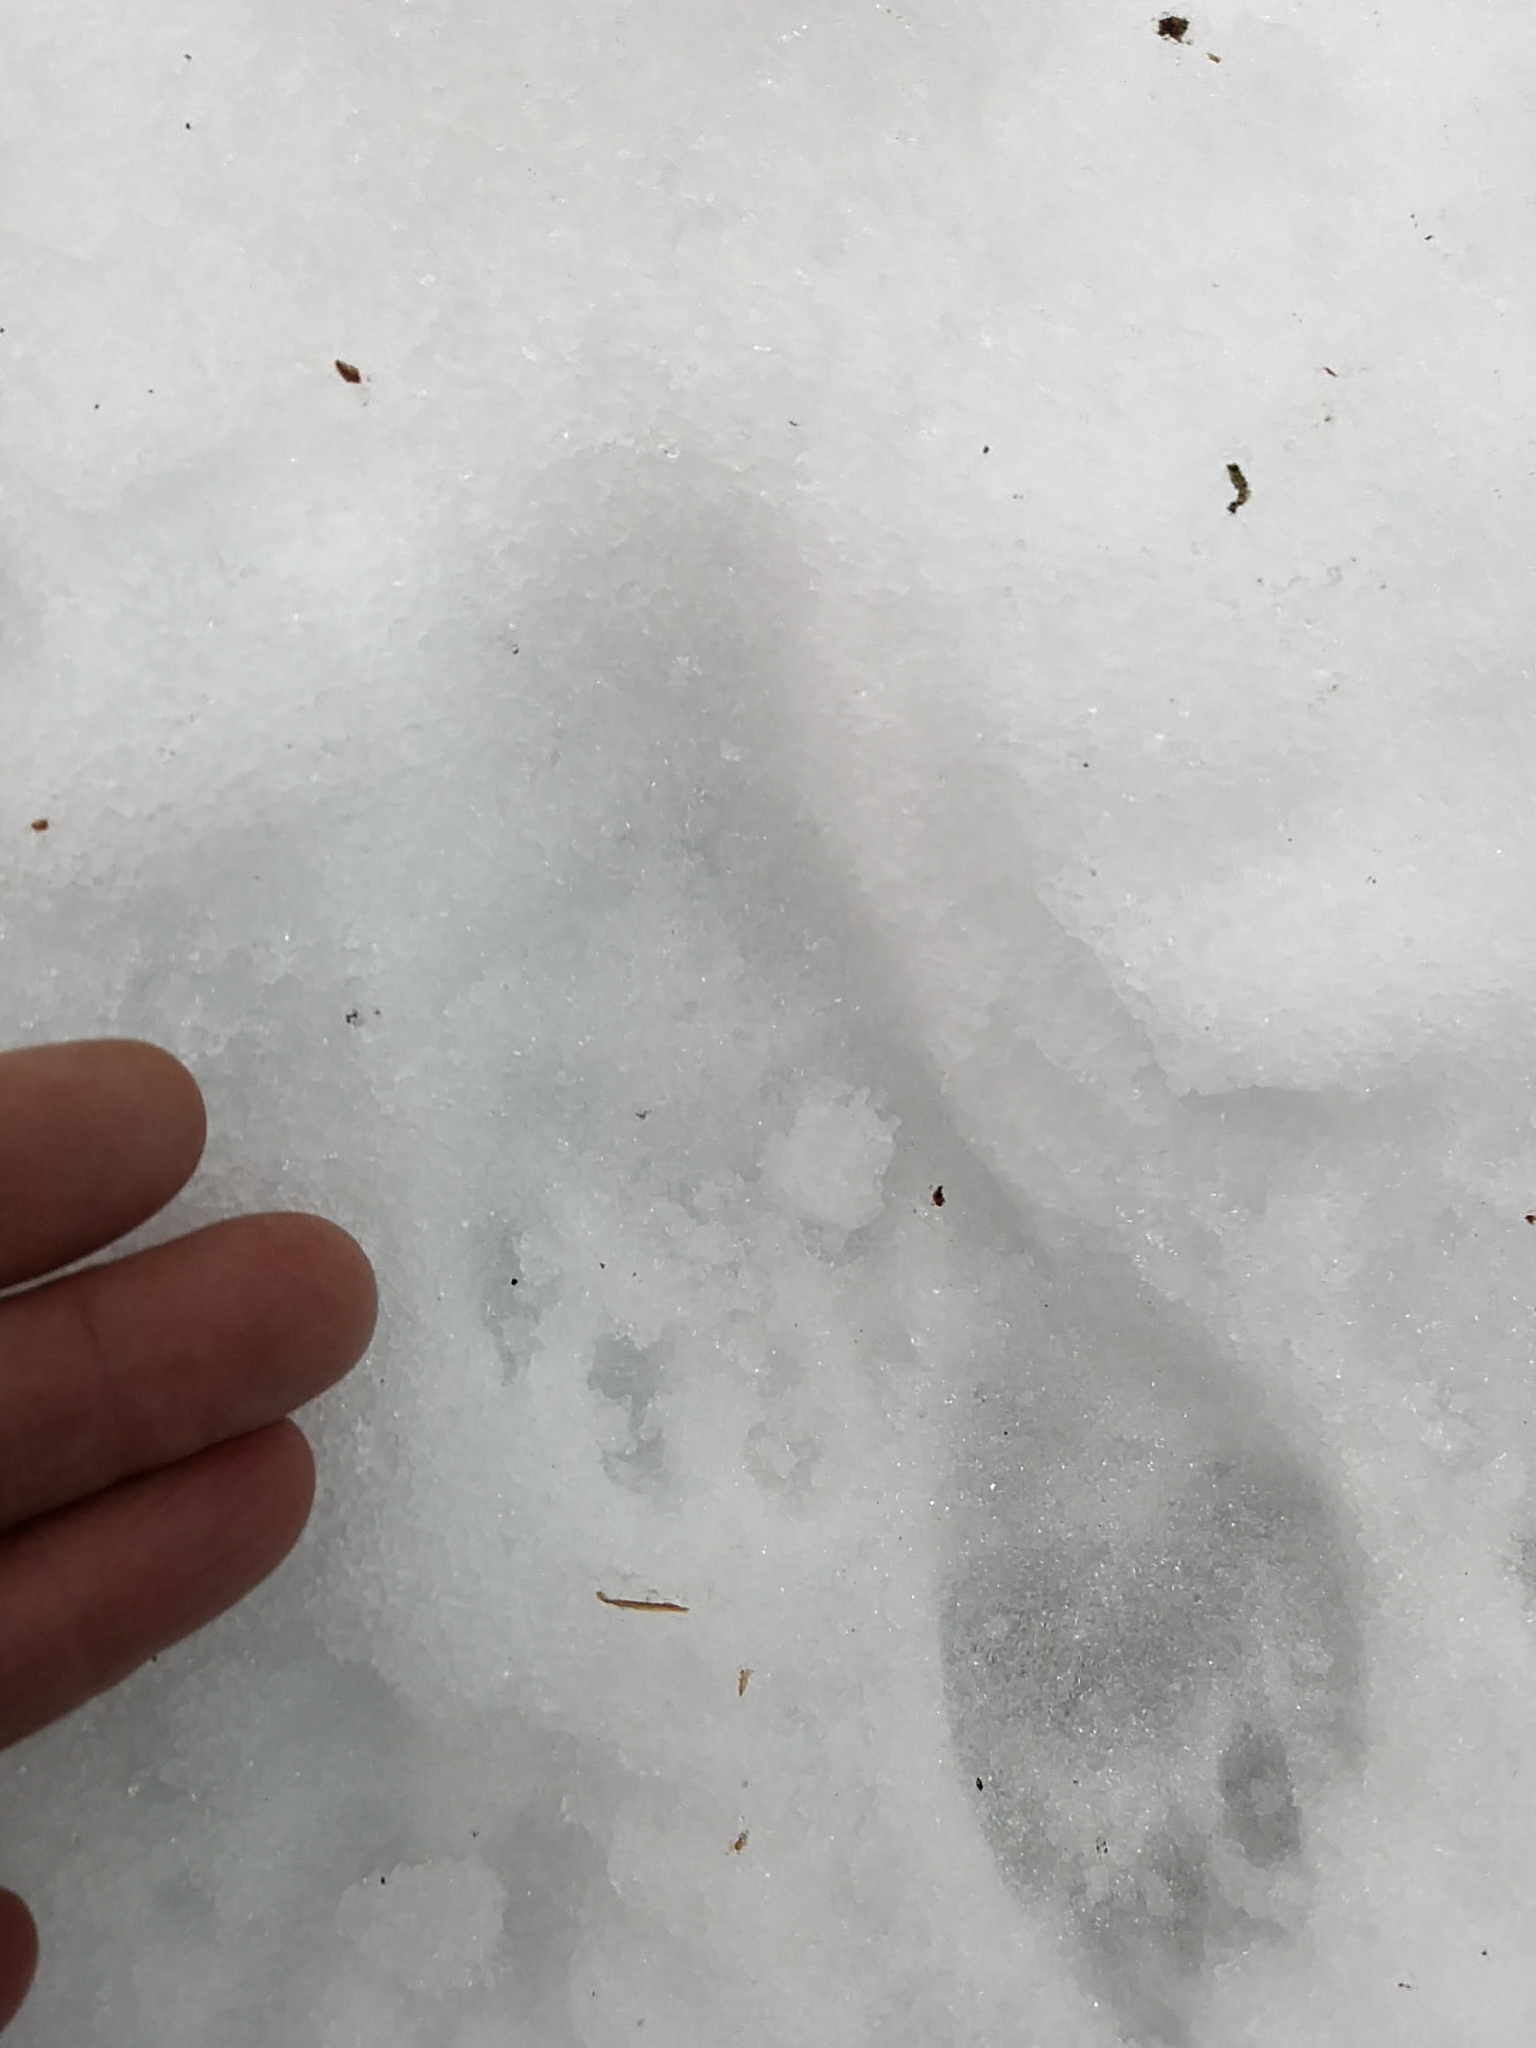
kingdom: Animalia
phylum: Chordata
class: Mammalia
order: Carnivora
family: Procyonidae
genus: Procyon
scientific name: Procyon lotor
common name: Raccoon
